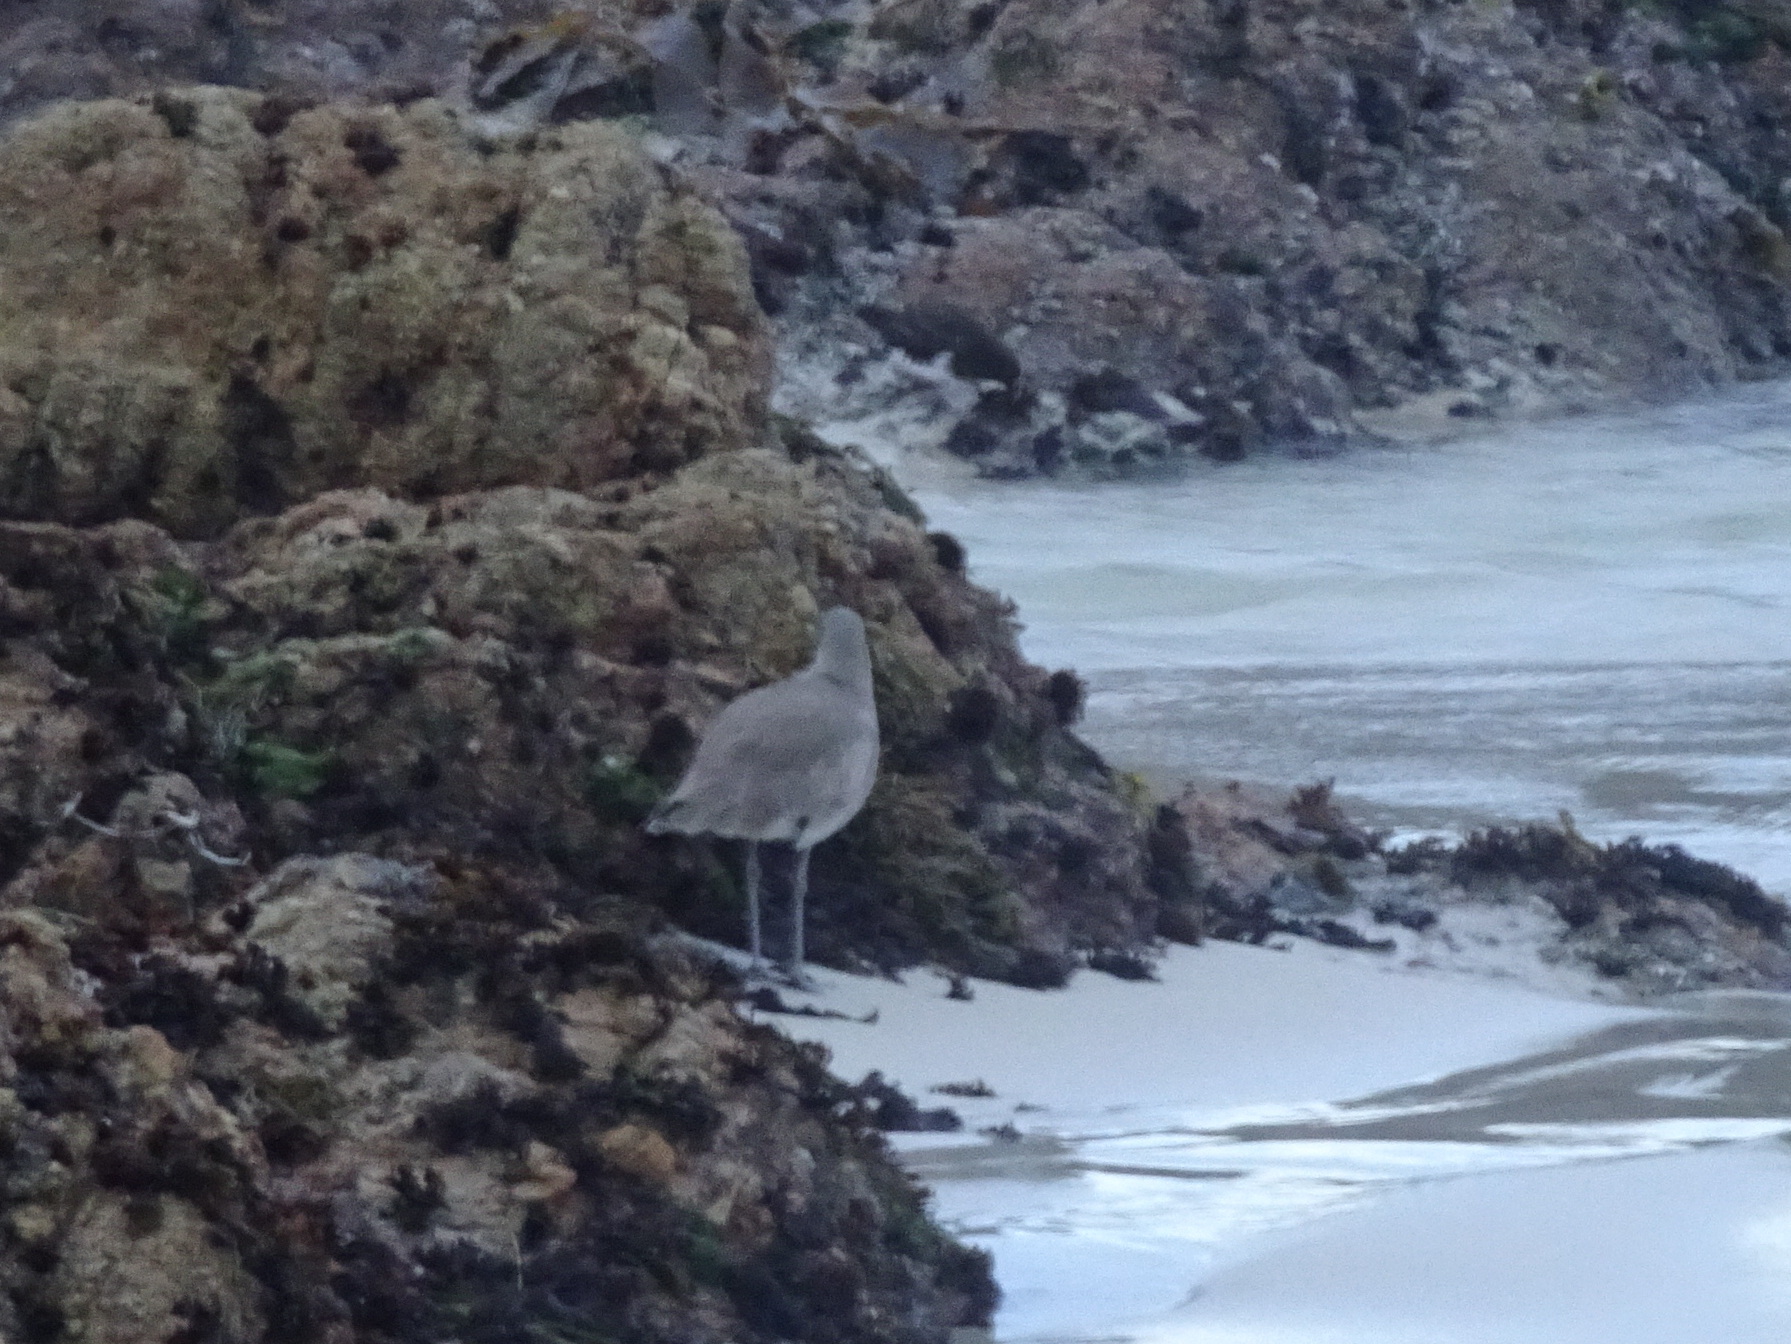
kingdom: Animalia
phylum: Chordata
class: Aves
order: Charadriiformes
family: Scolopacidae
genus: Tringa
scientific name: Tringa semipalmata
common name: Willet
